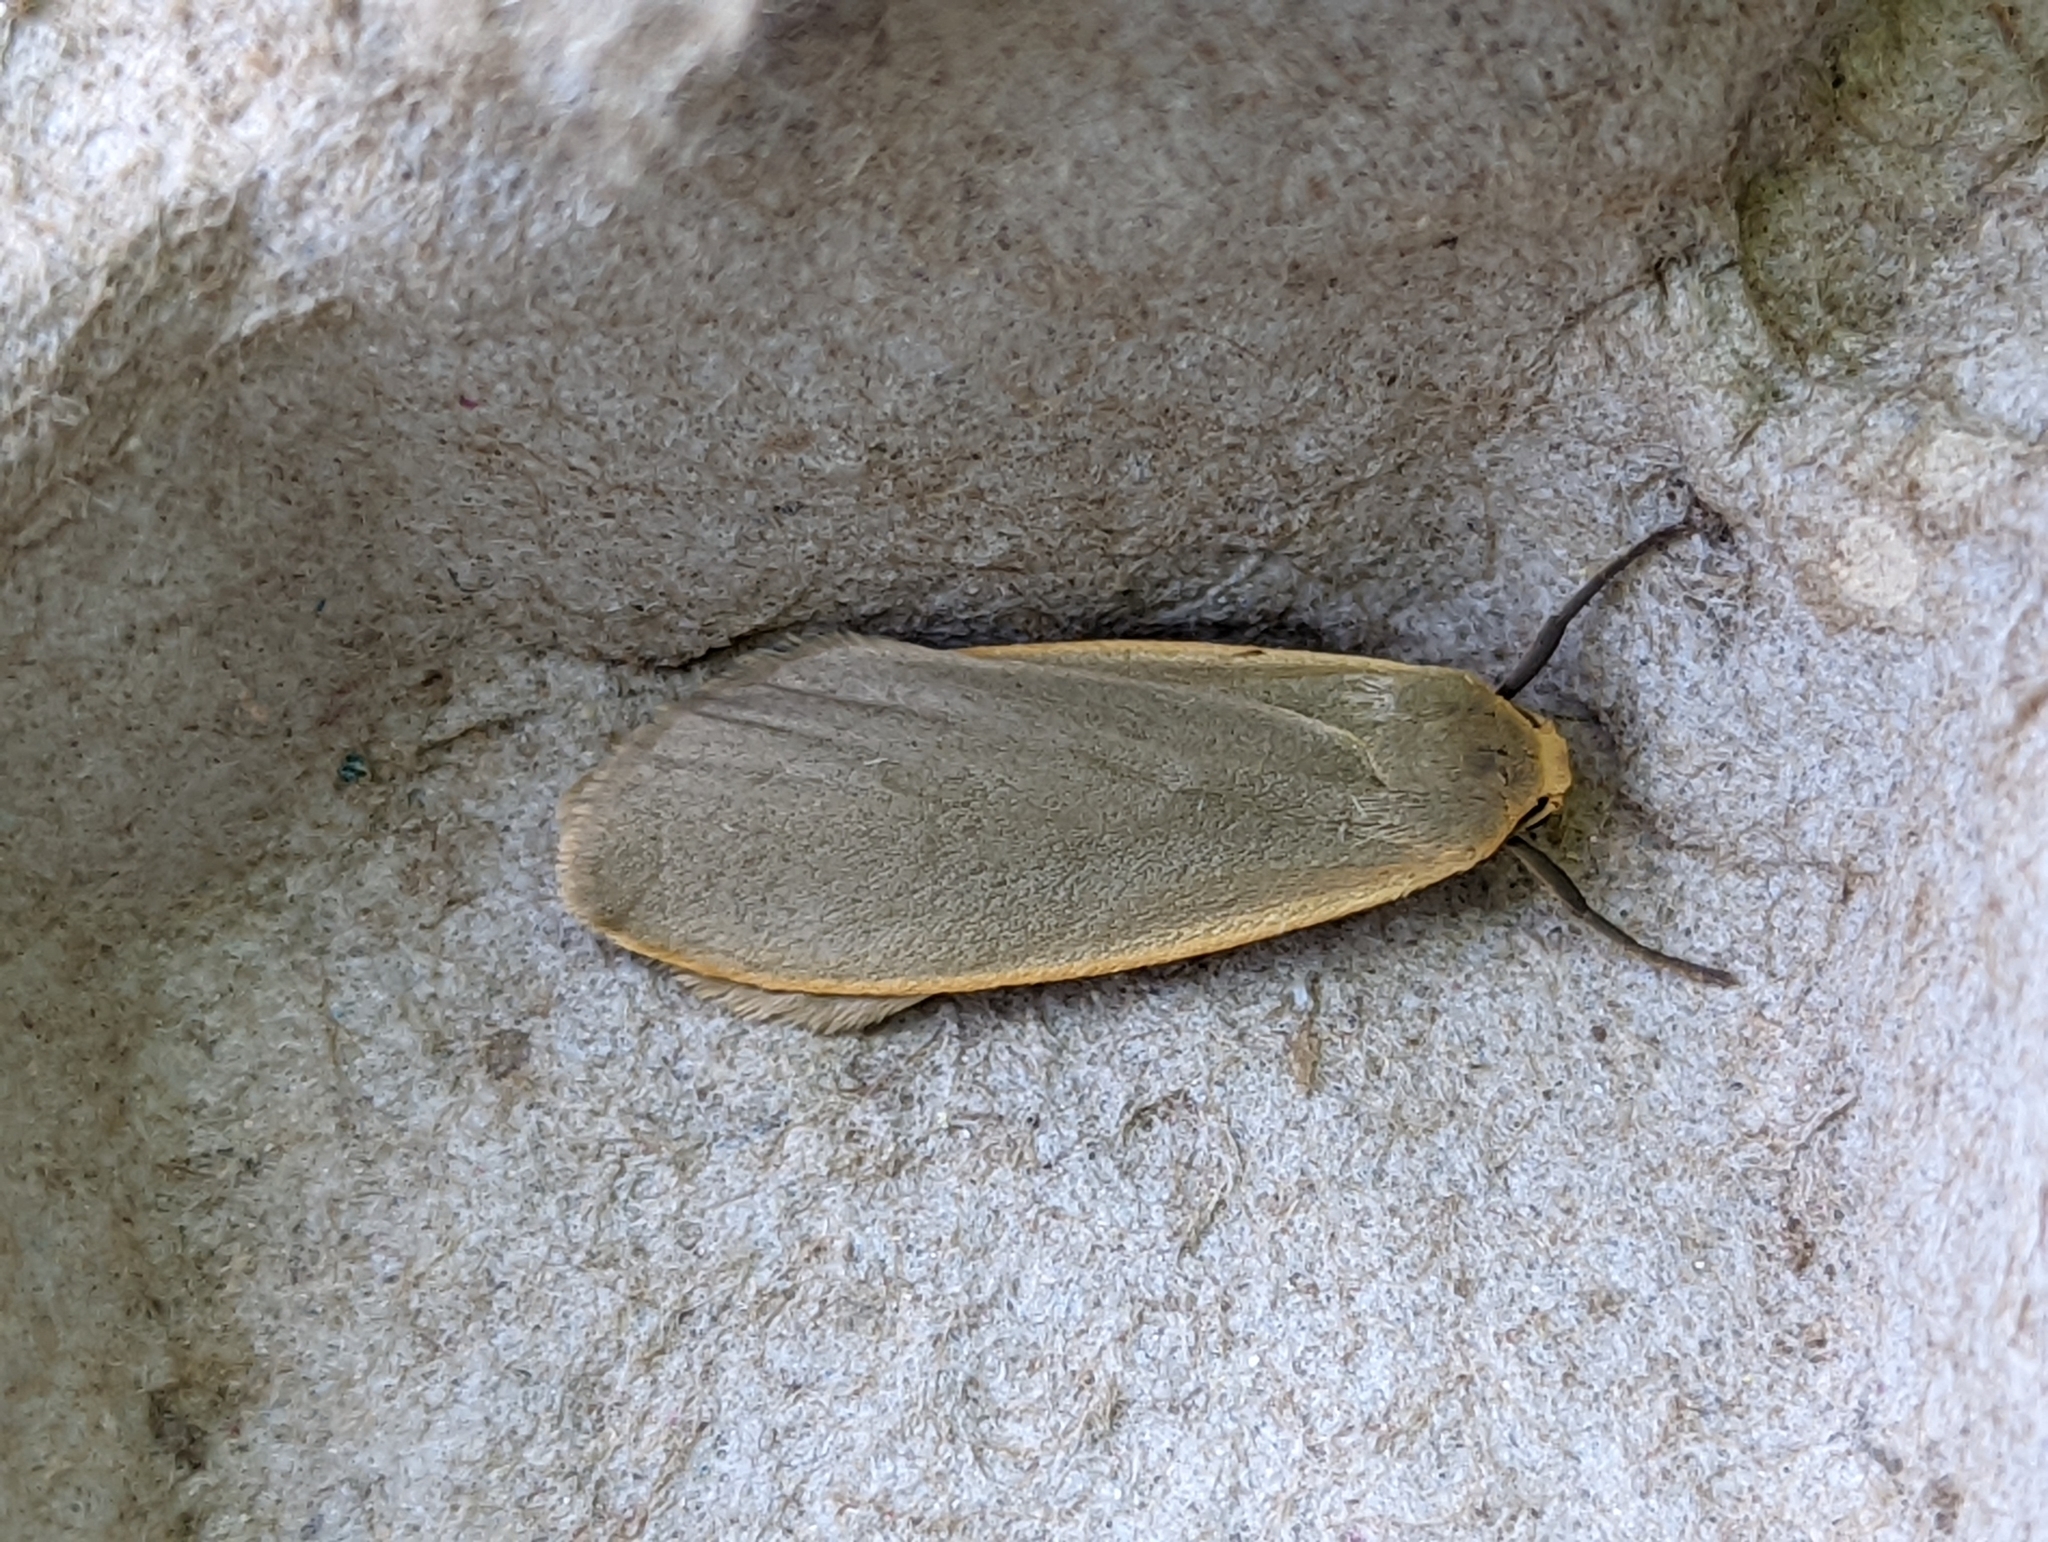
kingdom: Animalia
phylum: Arthropoda
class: Insecta
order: Lepidoptera
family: Erebidae
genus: Collita
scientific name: Collita griseola
